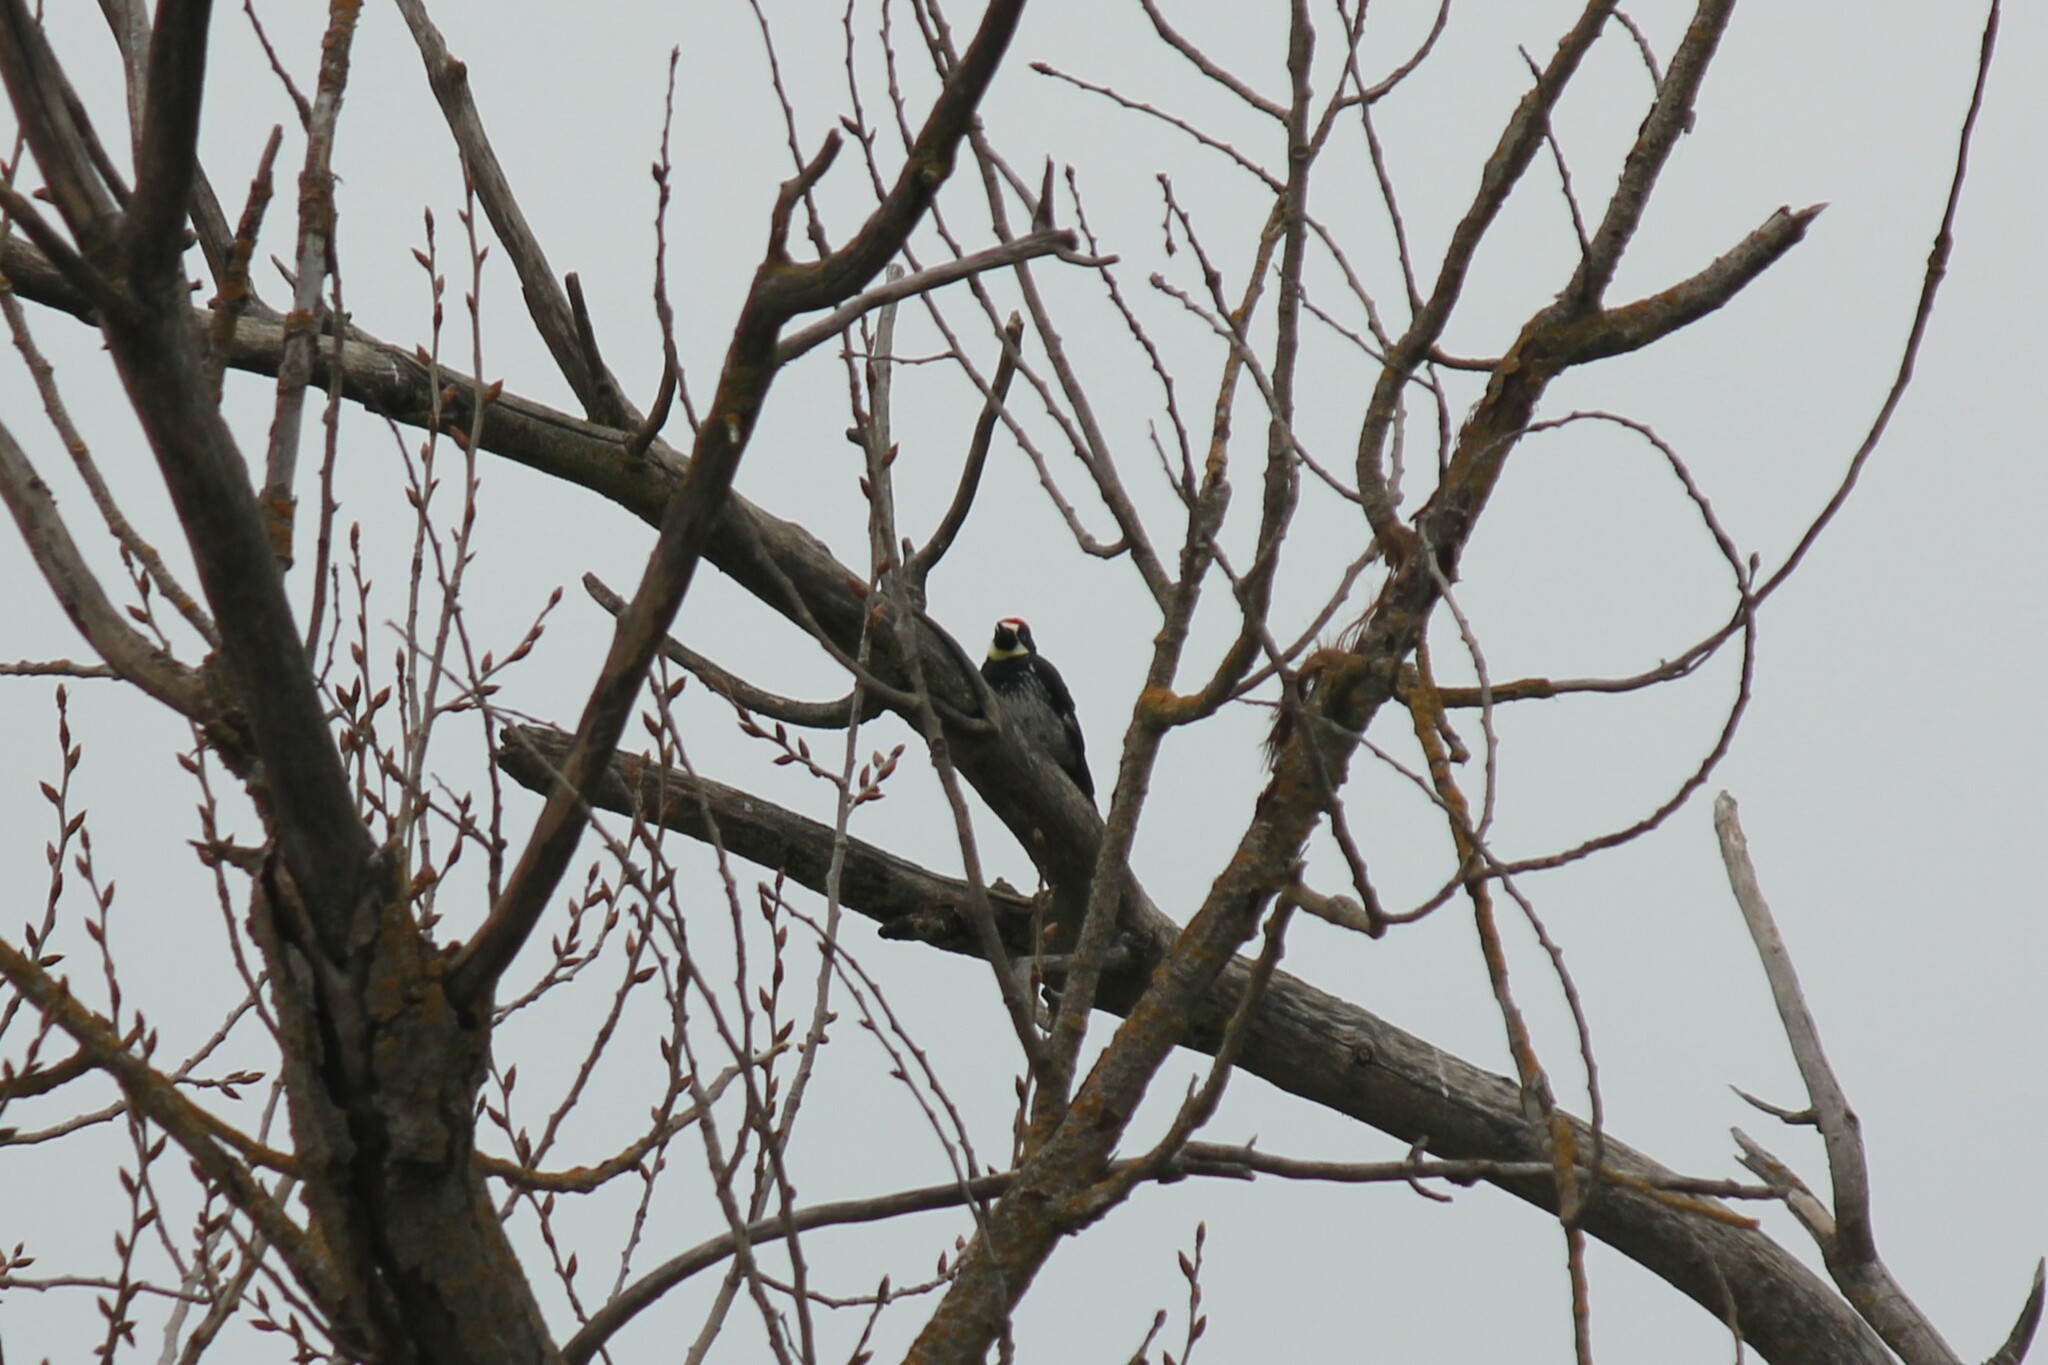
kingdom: Animalia
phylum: Chordata
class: Aves
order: Piciformes
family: Picidae
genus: Melanerpes
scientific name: Melanerpes formicivorus
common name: Acorn woodpecker
